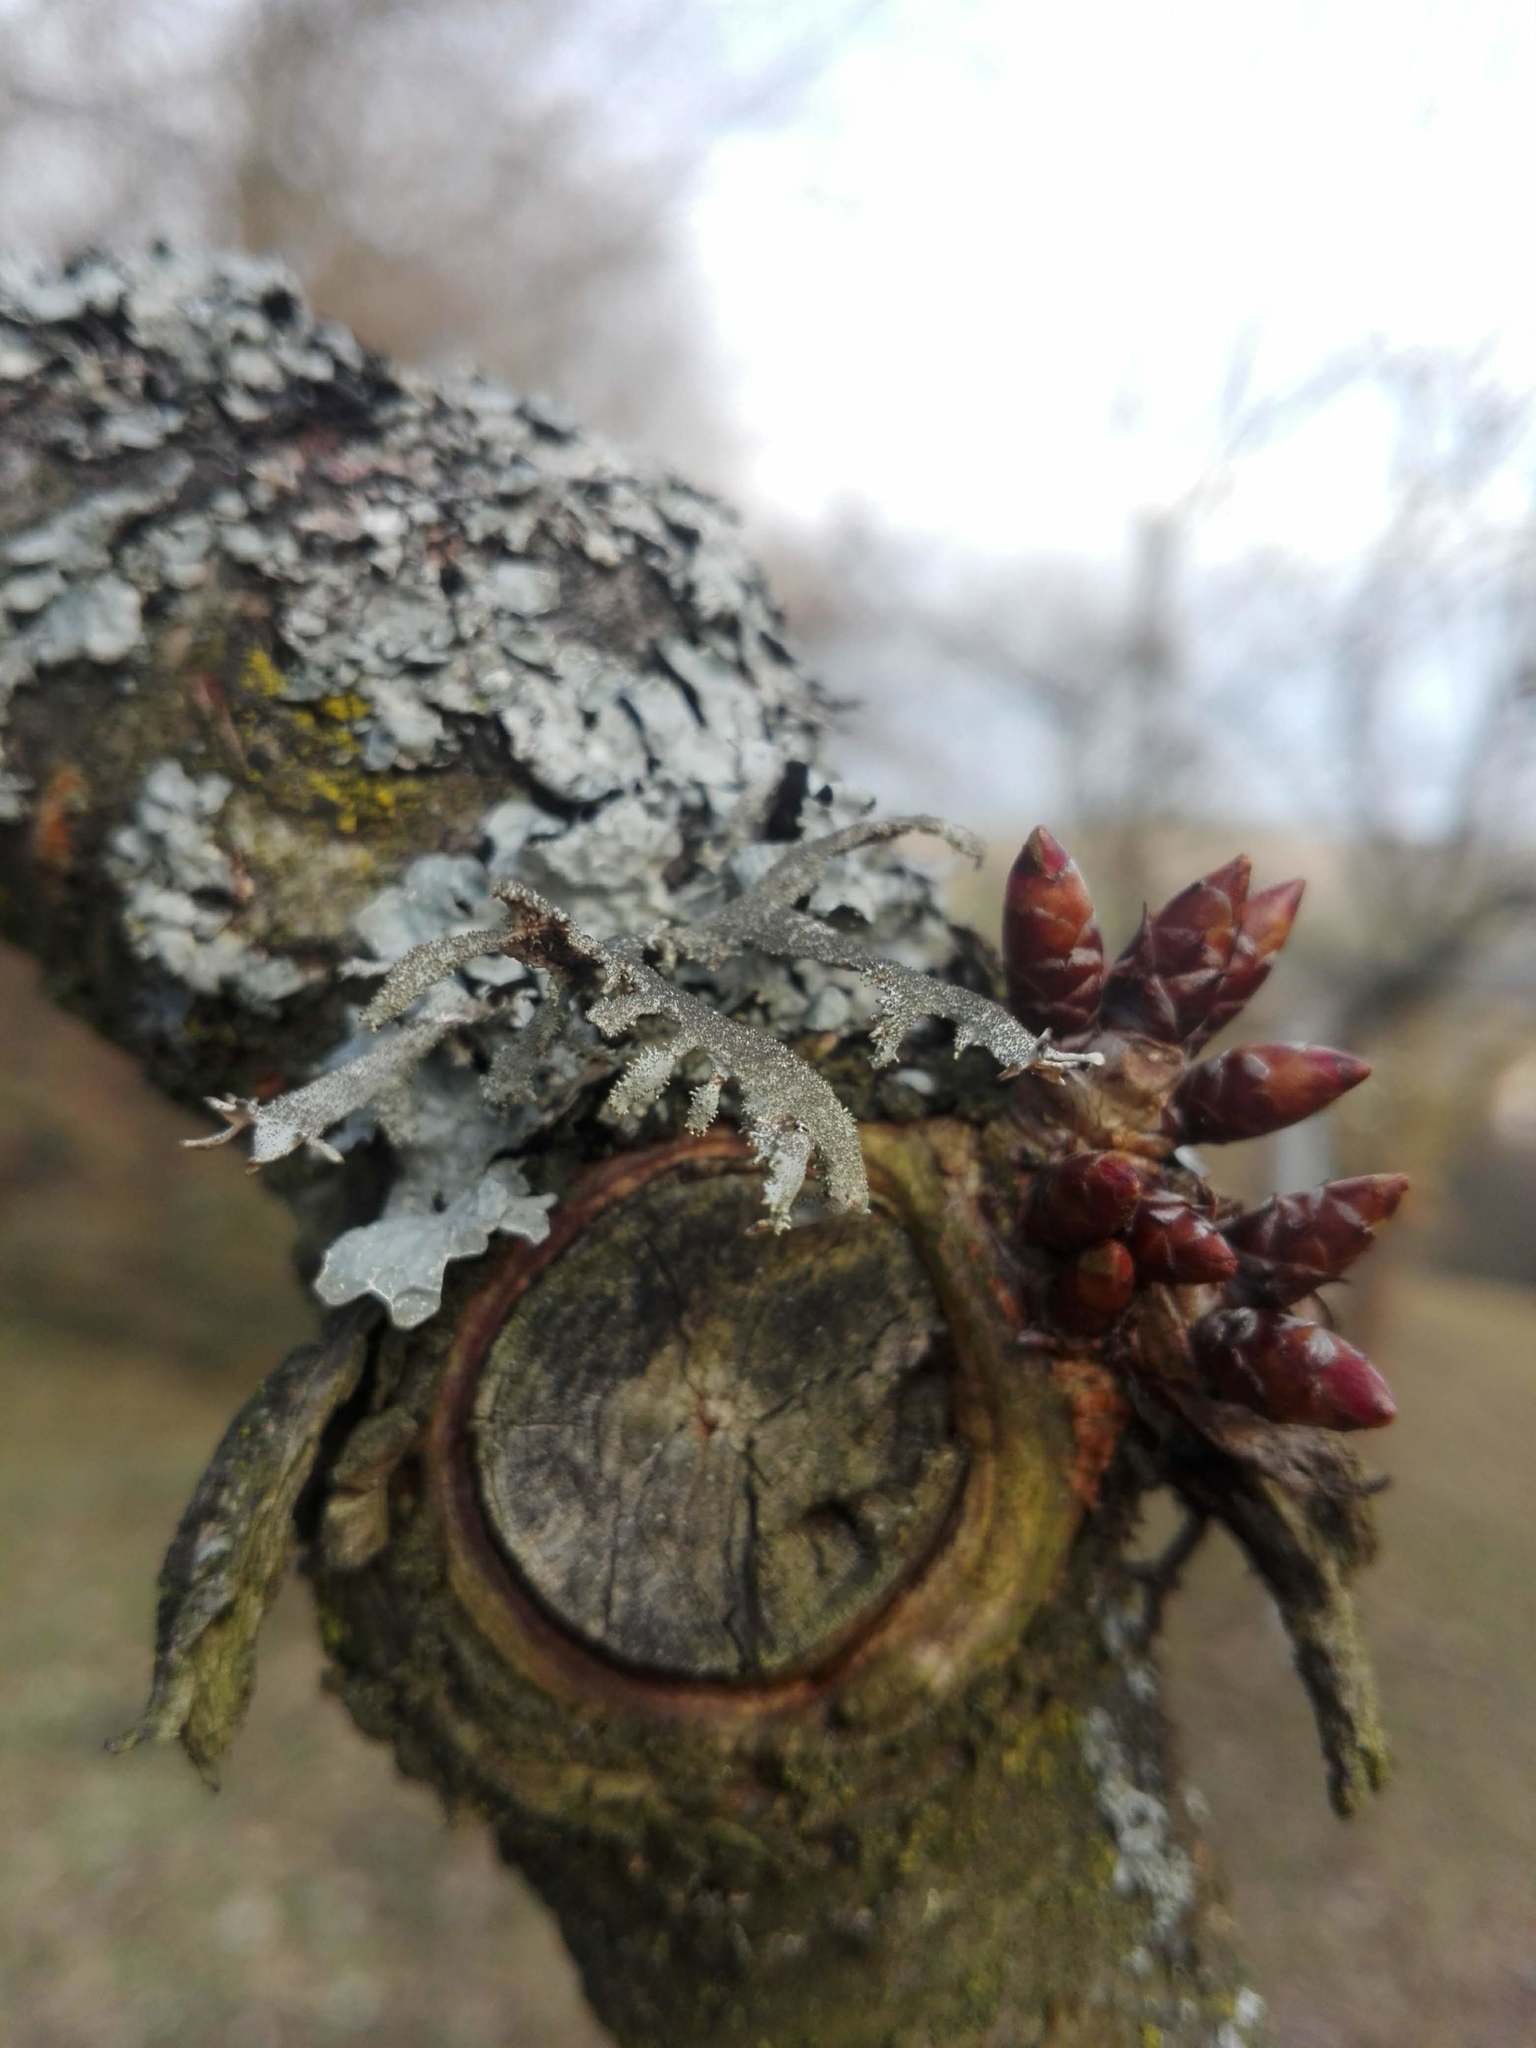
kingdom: Fungi
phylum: Ascomycota
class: Lecanoromycetes
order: Lecanorales
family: Parmeliaceae
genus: Pseudevernia
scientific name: Pseudevernia furfuracea
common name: Tree moss
